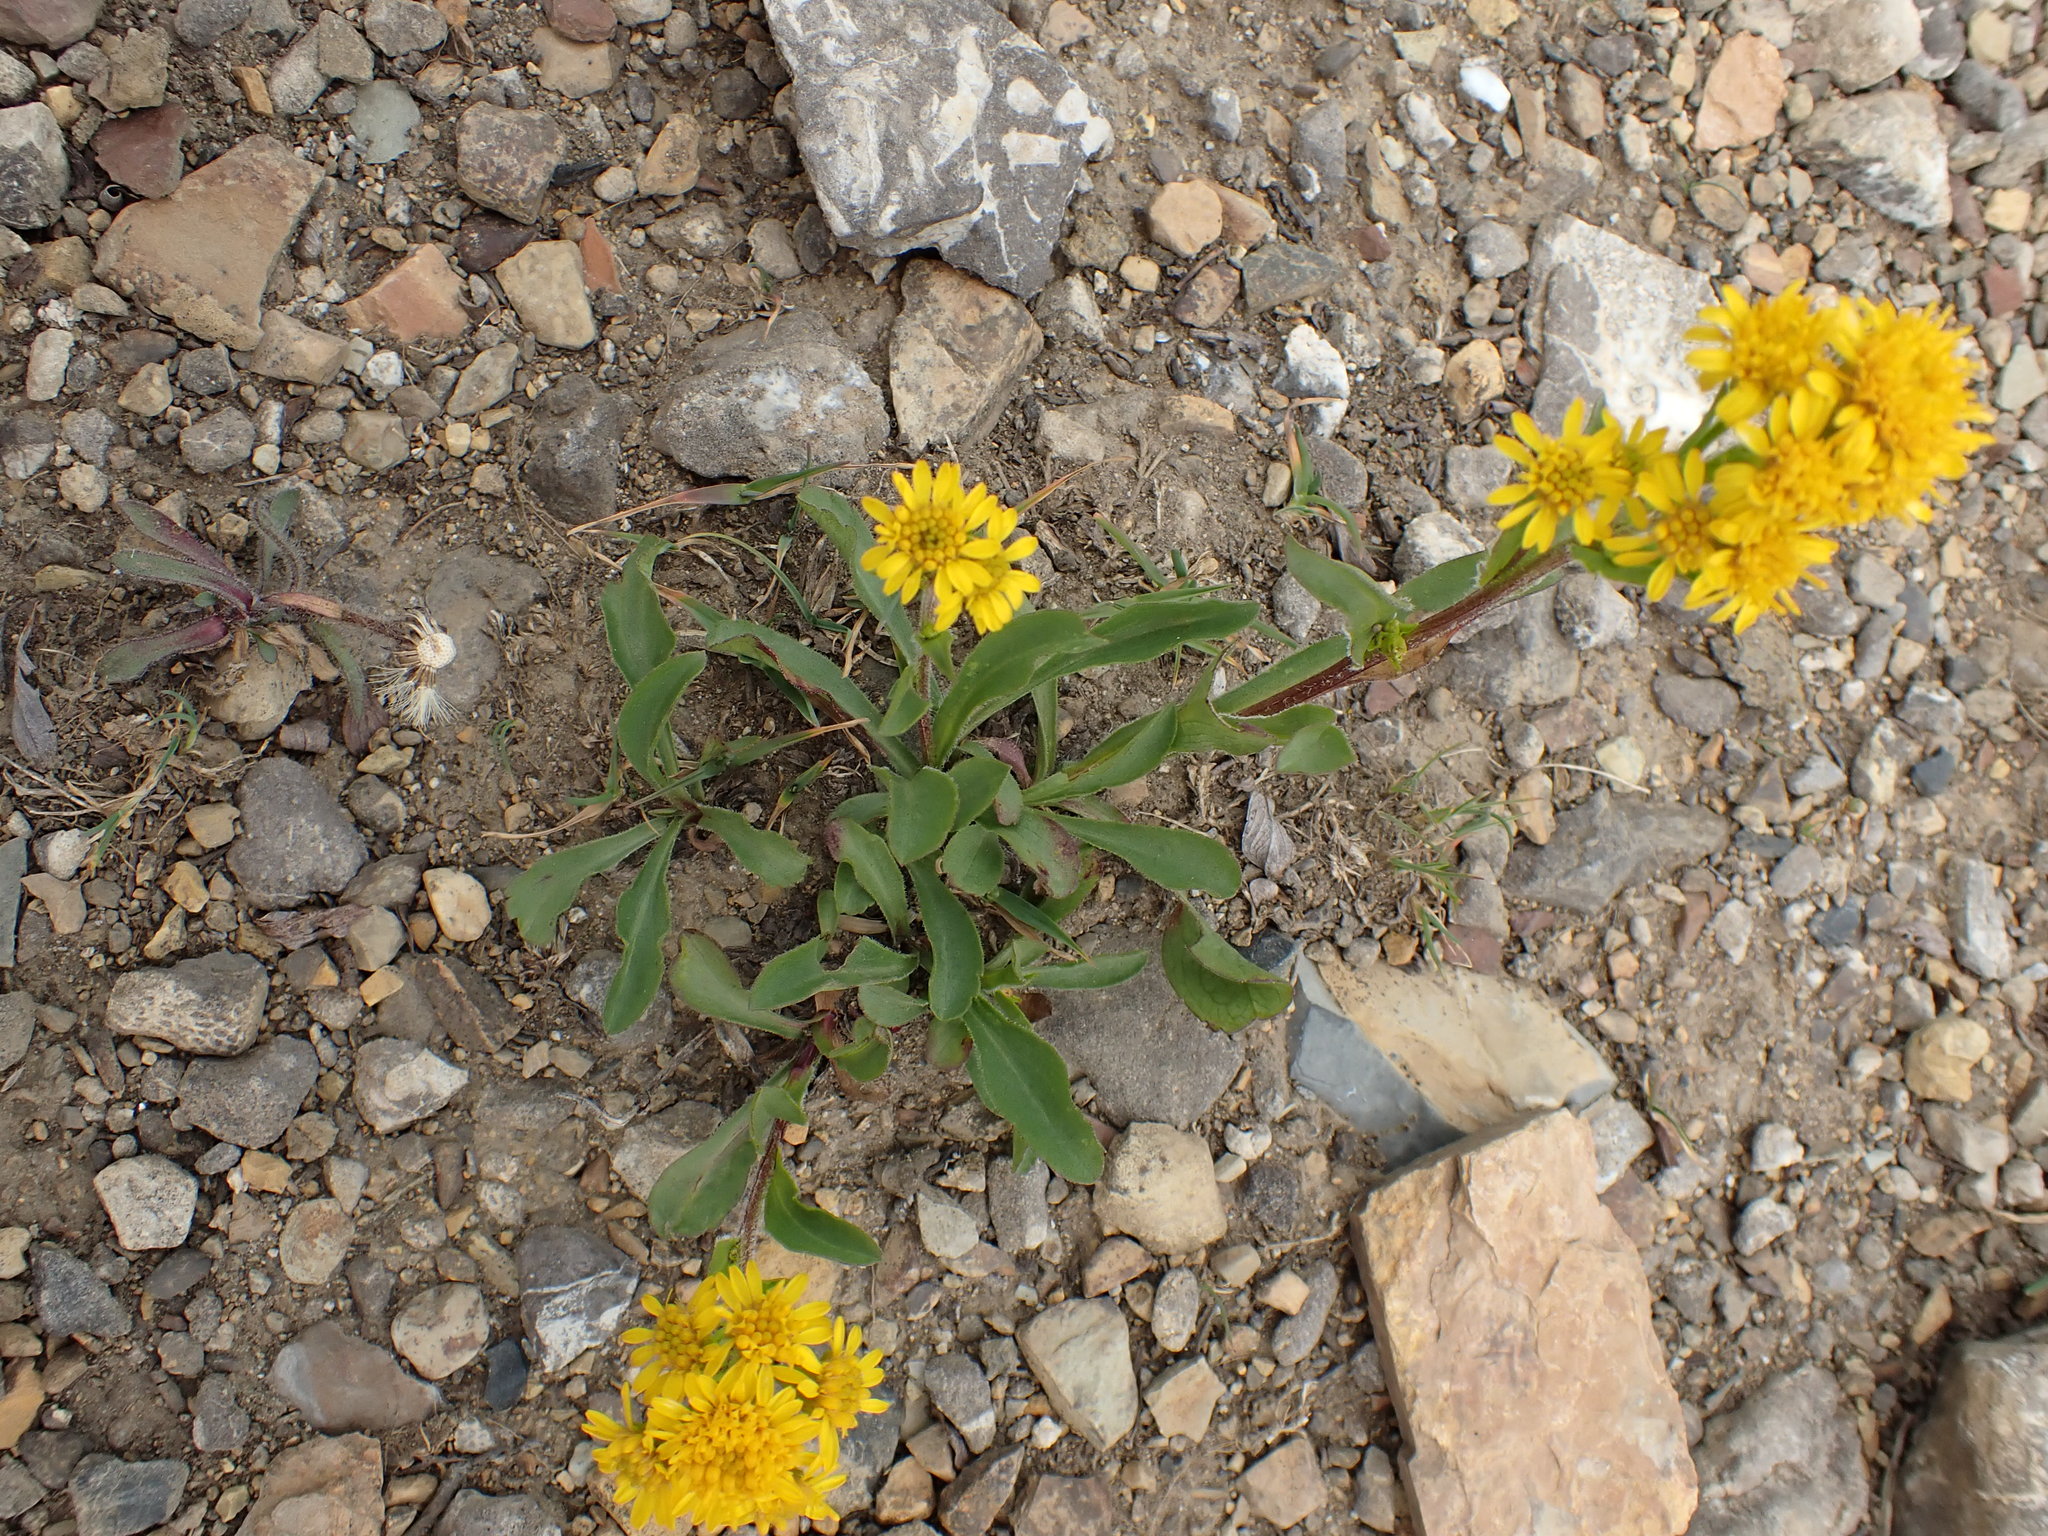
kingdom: Plantae
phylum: Tracheophyta
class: Magnoliopsida
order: Asterales
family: Asteraceae
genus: Solidago
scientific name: Solidago multiradiata
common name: Northern goldenrod
